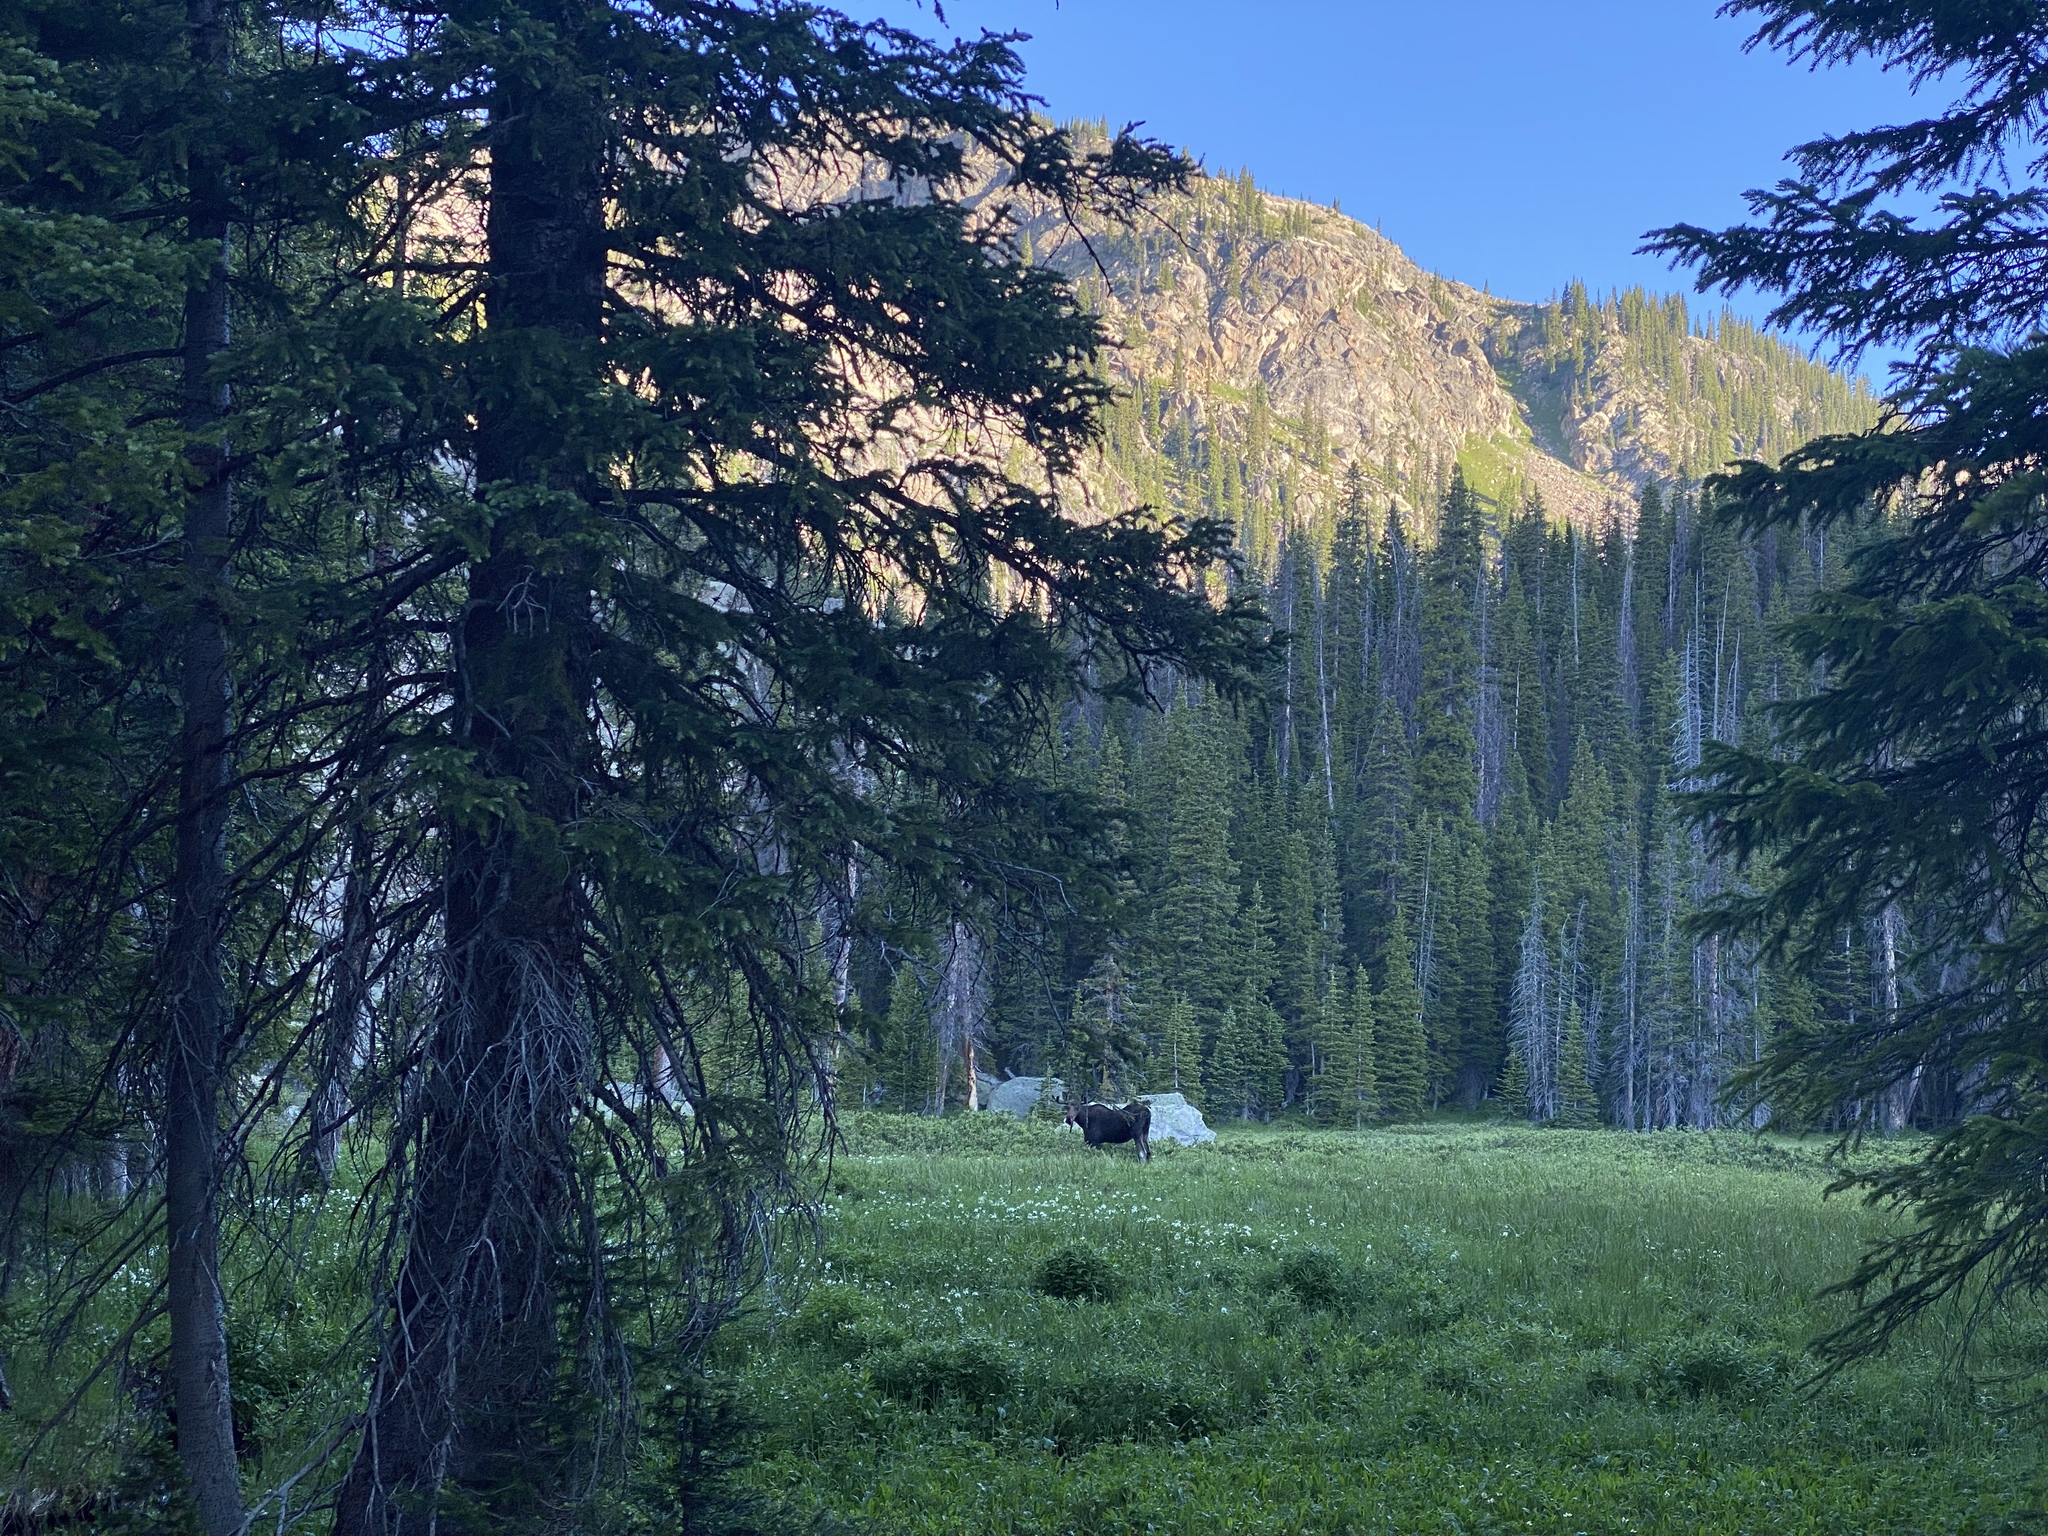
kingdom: Animalia
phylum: Chordata
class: Mammalia
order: Artiodactyla
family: Cervidae
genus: Alces
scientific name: Alces alces
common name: Moose
